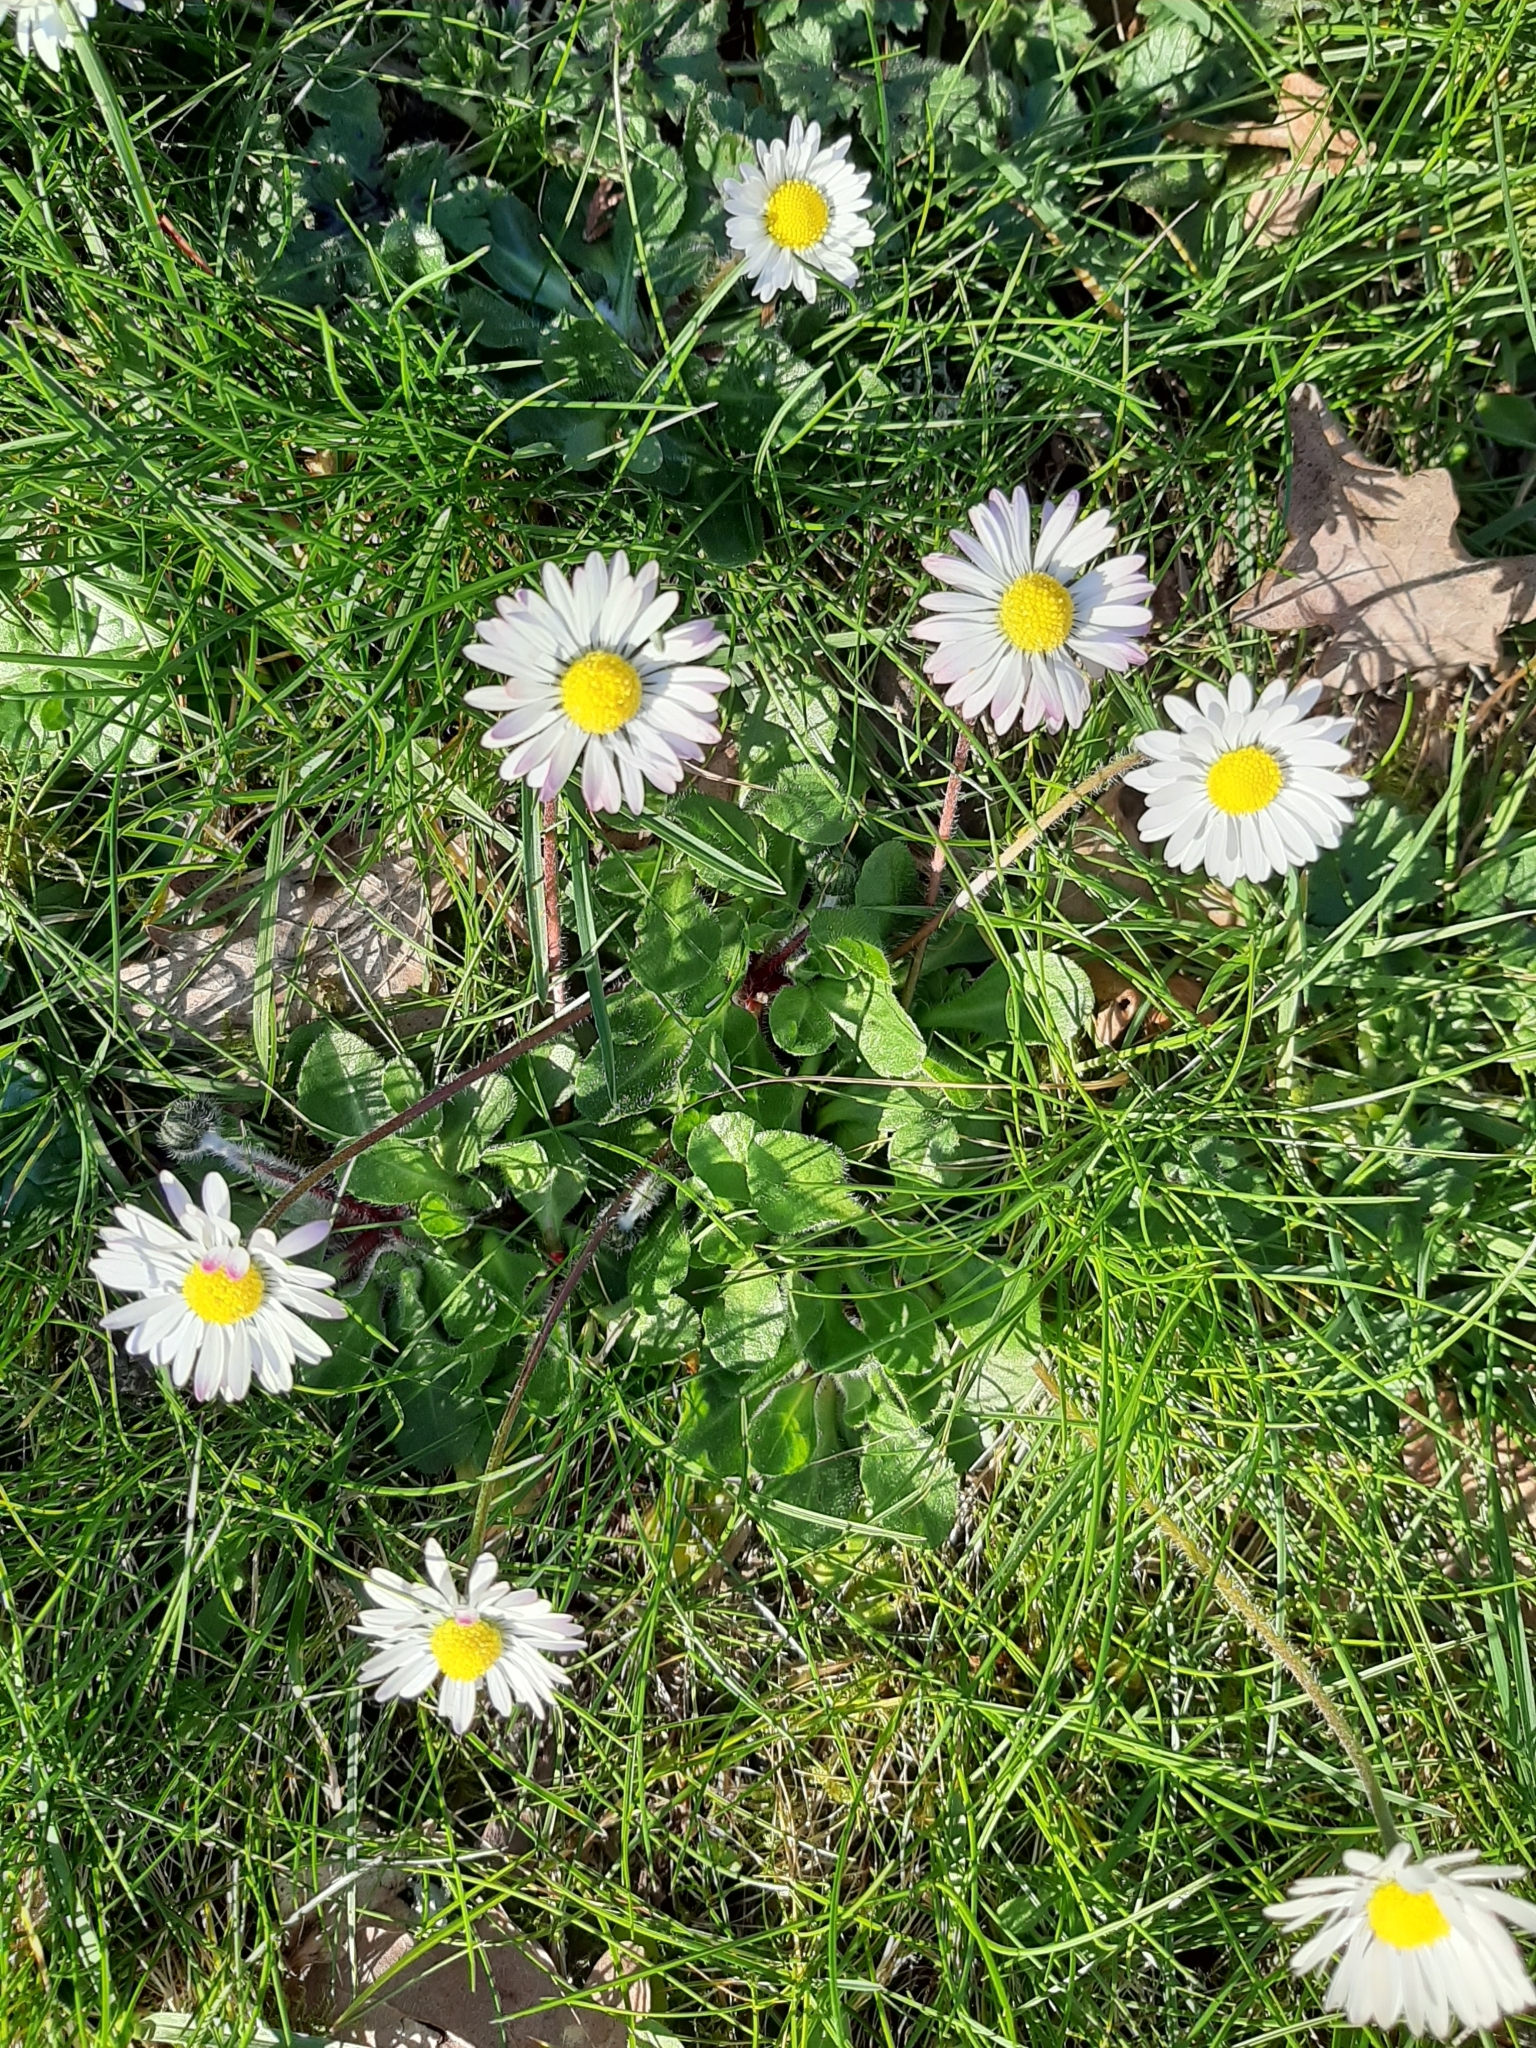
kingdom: Plantae
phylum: Tracheophyta
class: Magnoliopsida
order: Asterales
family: Asteraceae
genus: Bellis
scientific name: Bellis perennis
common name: Lawndaisy
